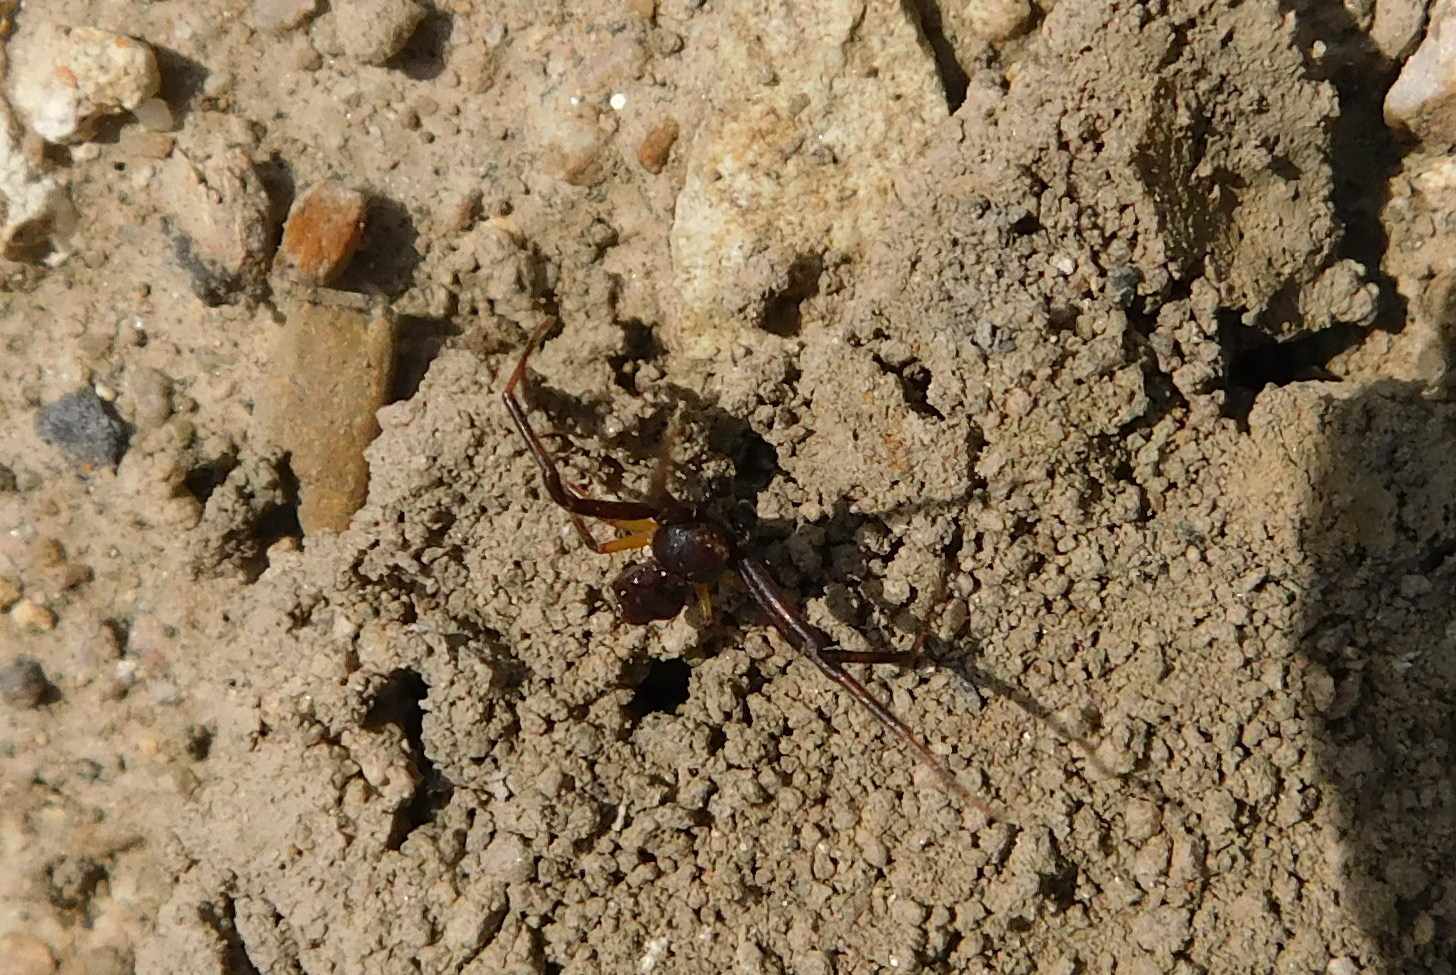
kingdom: Animalia
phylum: Arthropoda
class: Arachnida
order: Araneae
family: Thomisidae
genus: Pistius
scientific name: Pistius truncatus
